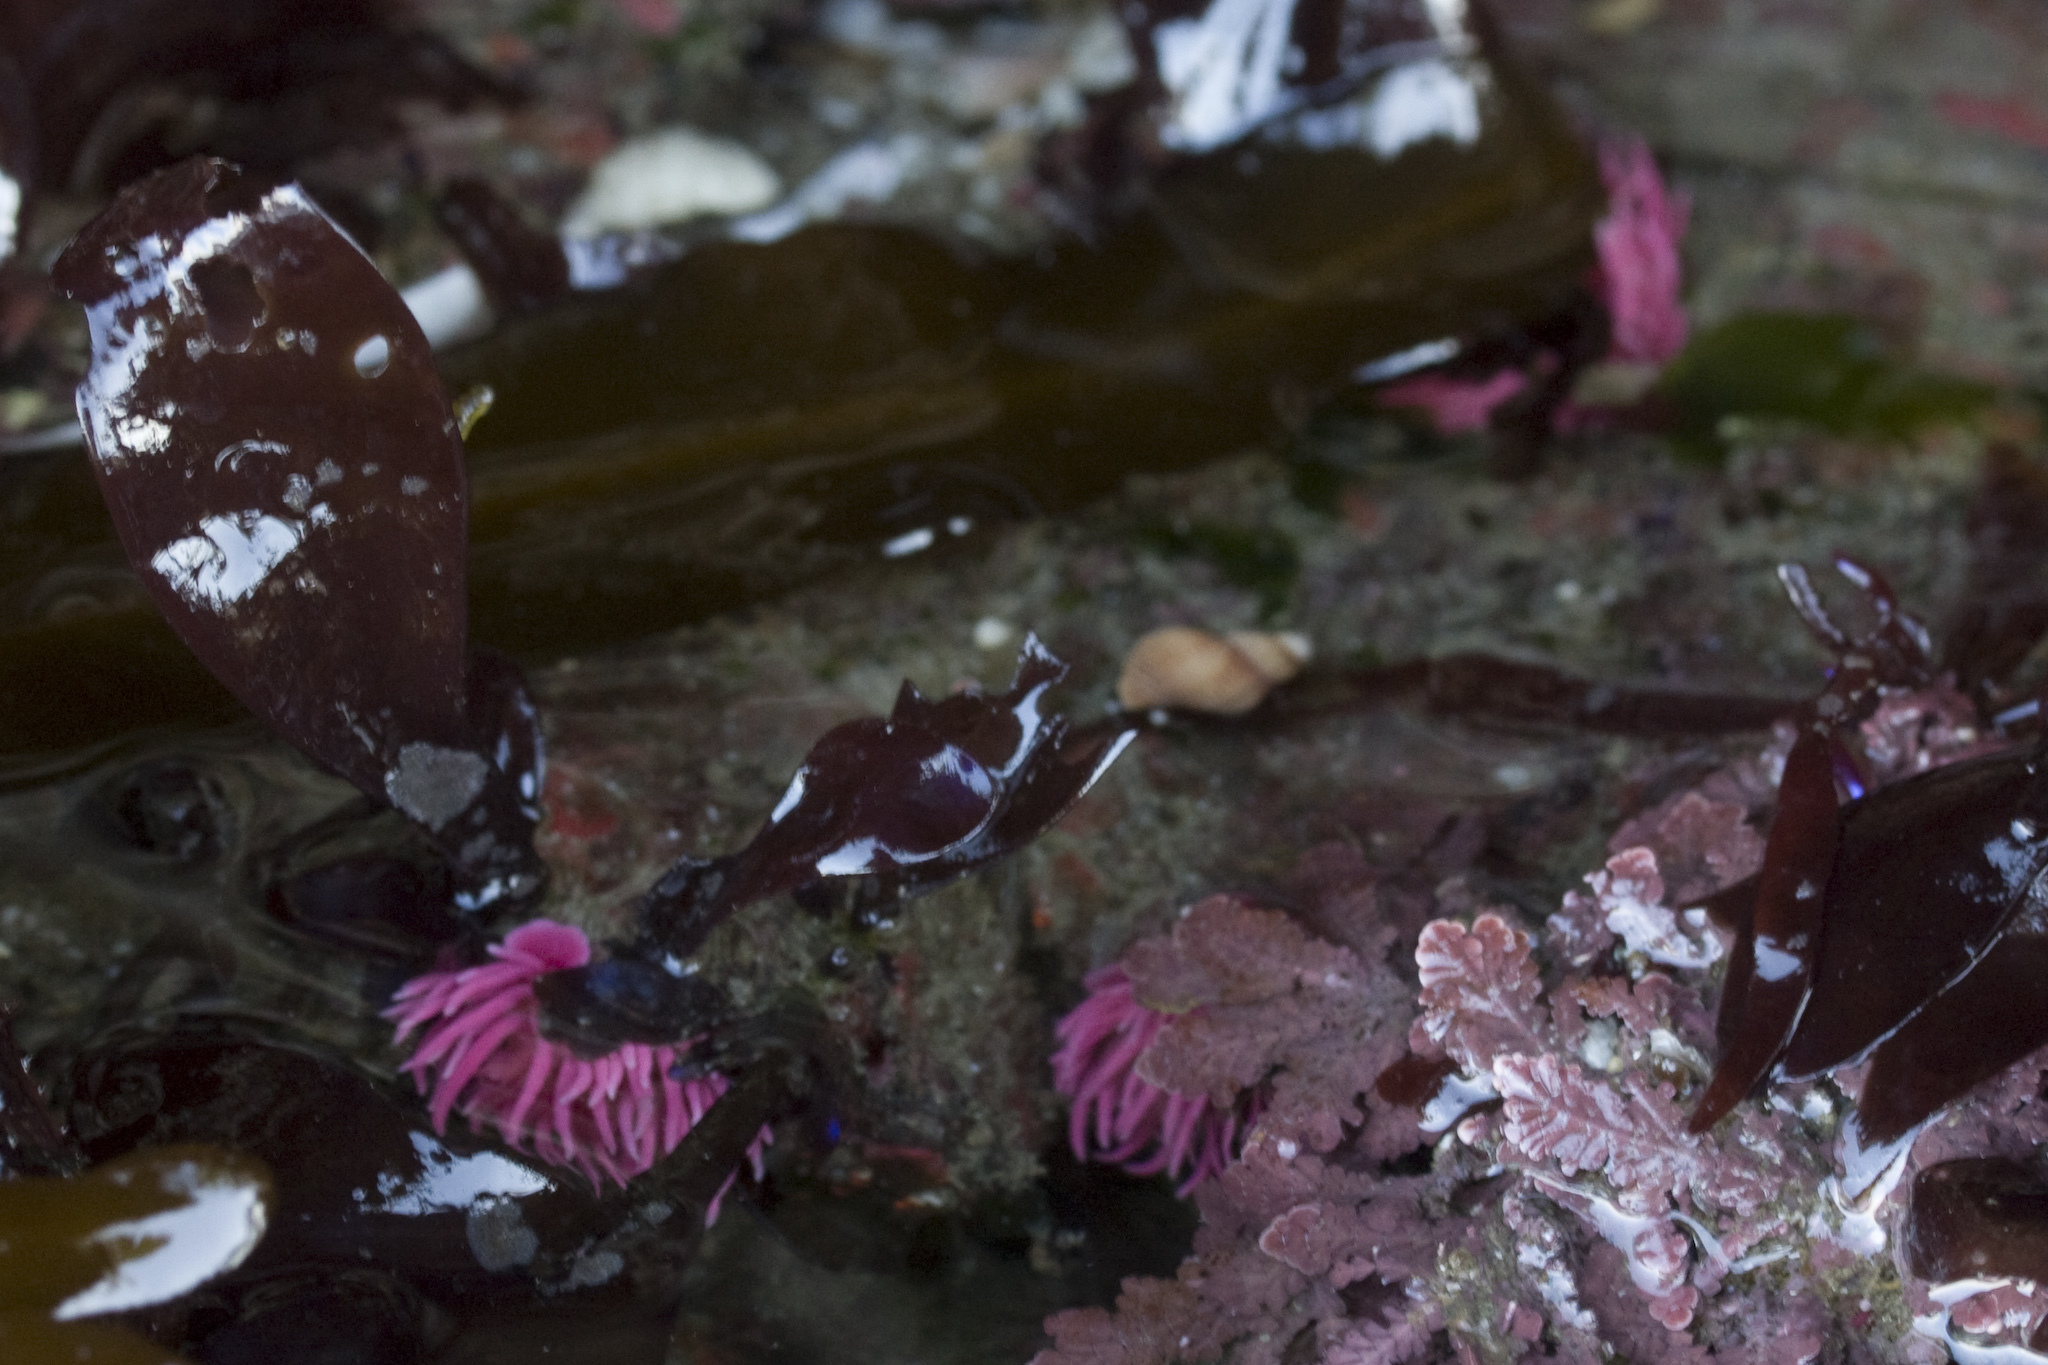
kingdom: Animalia
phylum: Mollusca
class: Gastropoda
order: Nudibranchia
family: Goniodorididae
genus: Okenia
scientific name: Okenia
